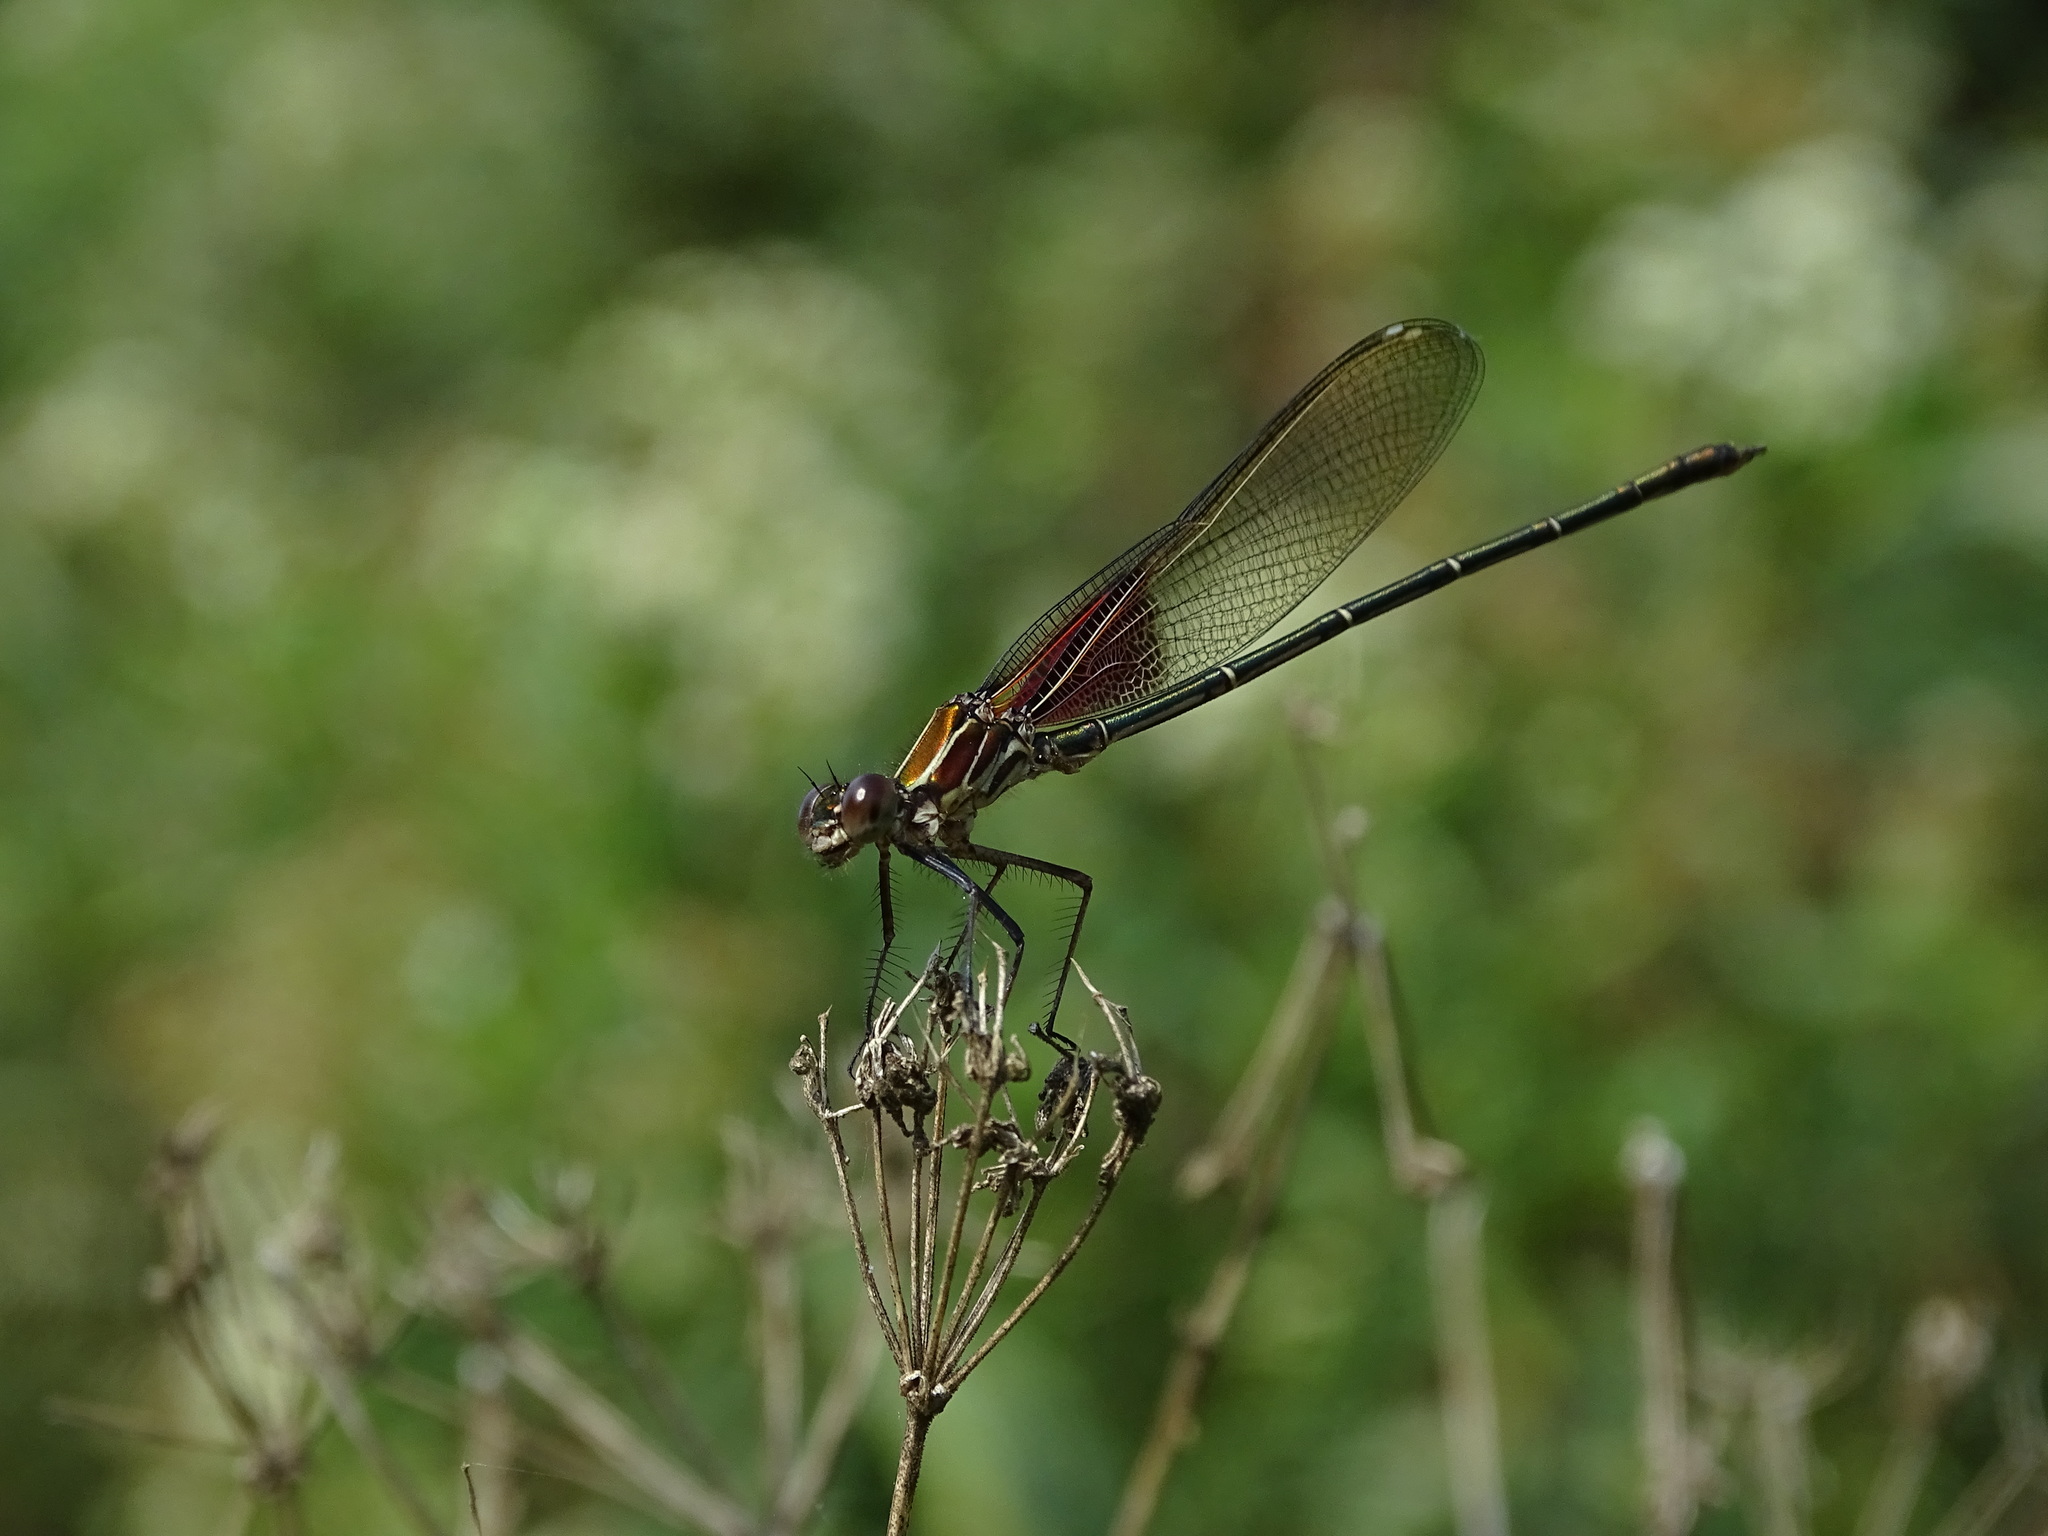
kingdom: Animalia
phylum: Arthropoda
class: Insecta
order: Odonata
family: Calopterygidae
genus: Hetaerina
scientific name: Hetaerina americana
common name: American rubyspot
